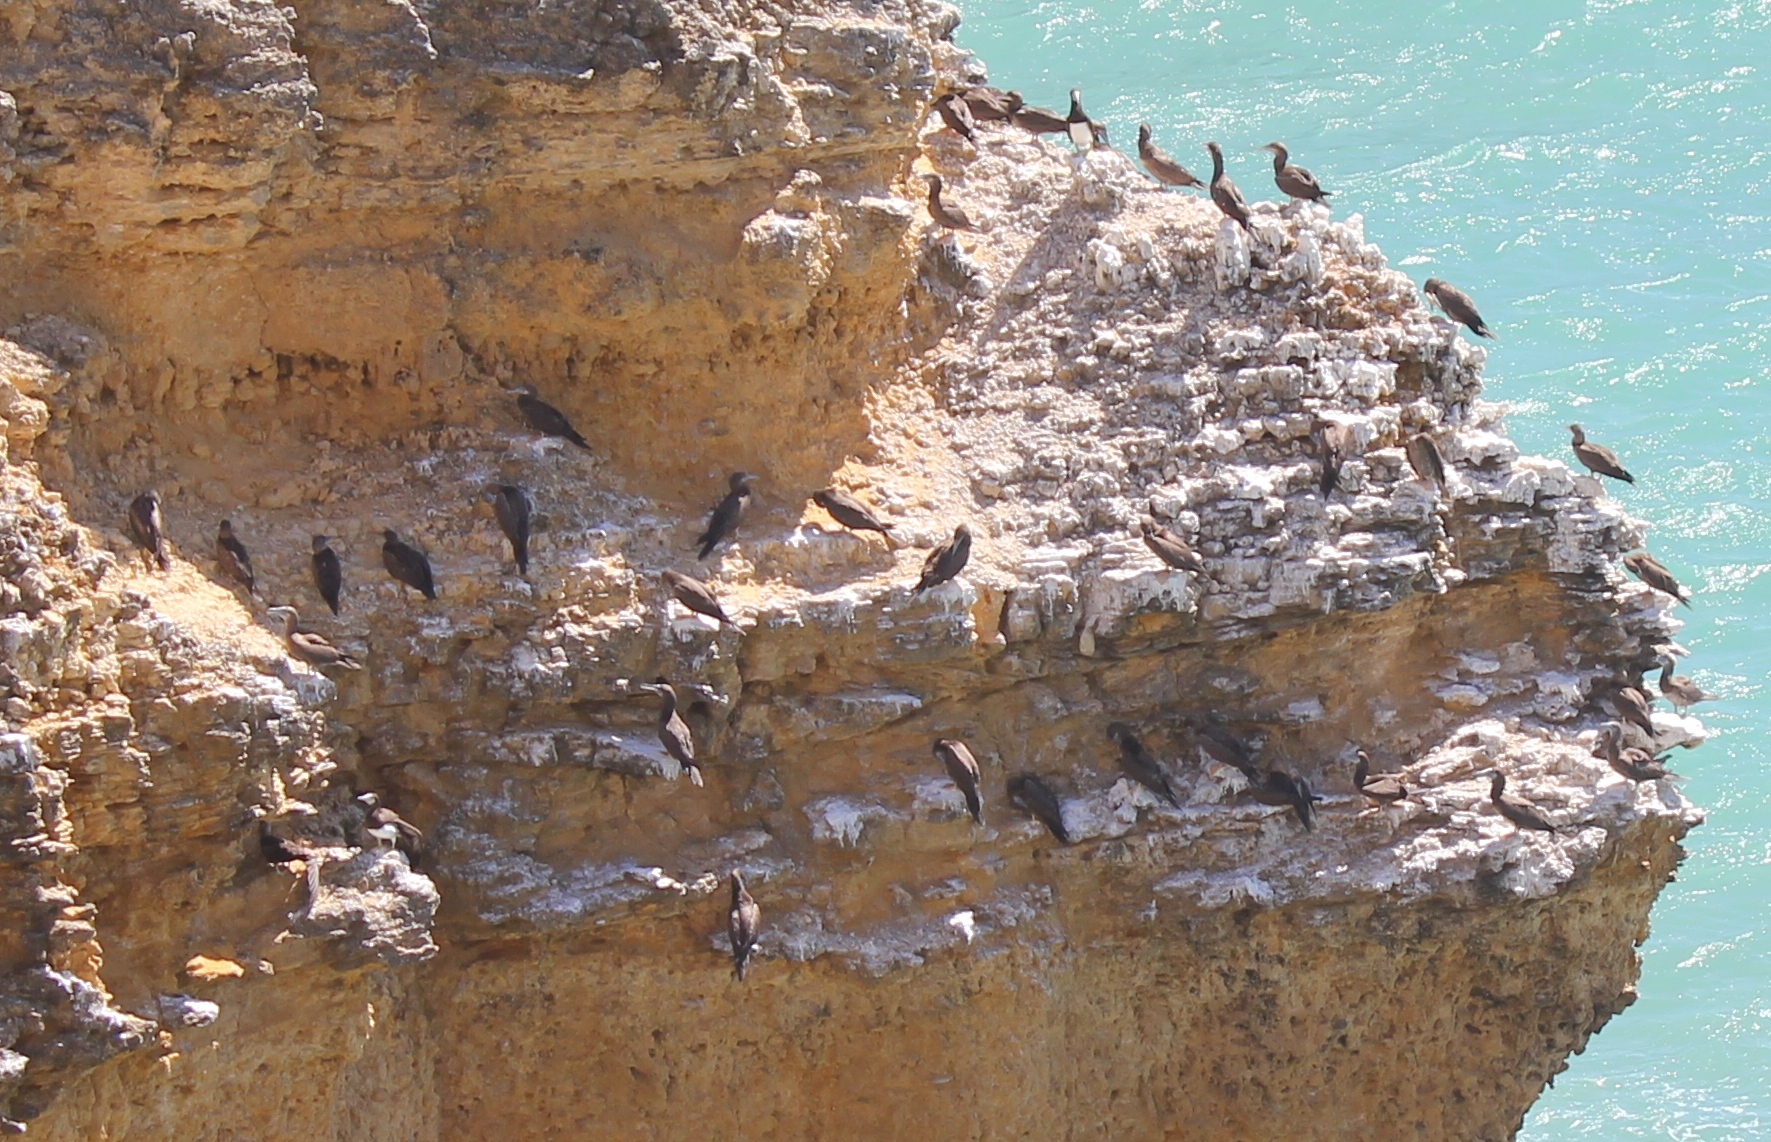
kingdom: Animalia
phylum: Chordata
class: Aves
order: Suliformes
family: Sulidae
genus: Sula
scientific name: Sula leucogaster
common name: Brown booby
